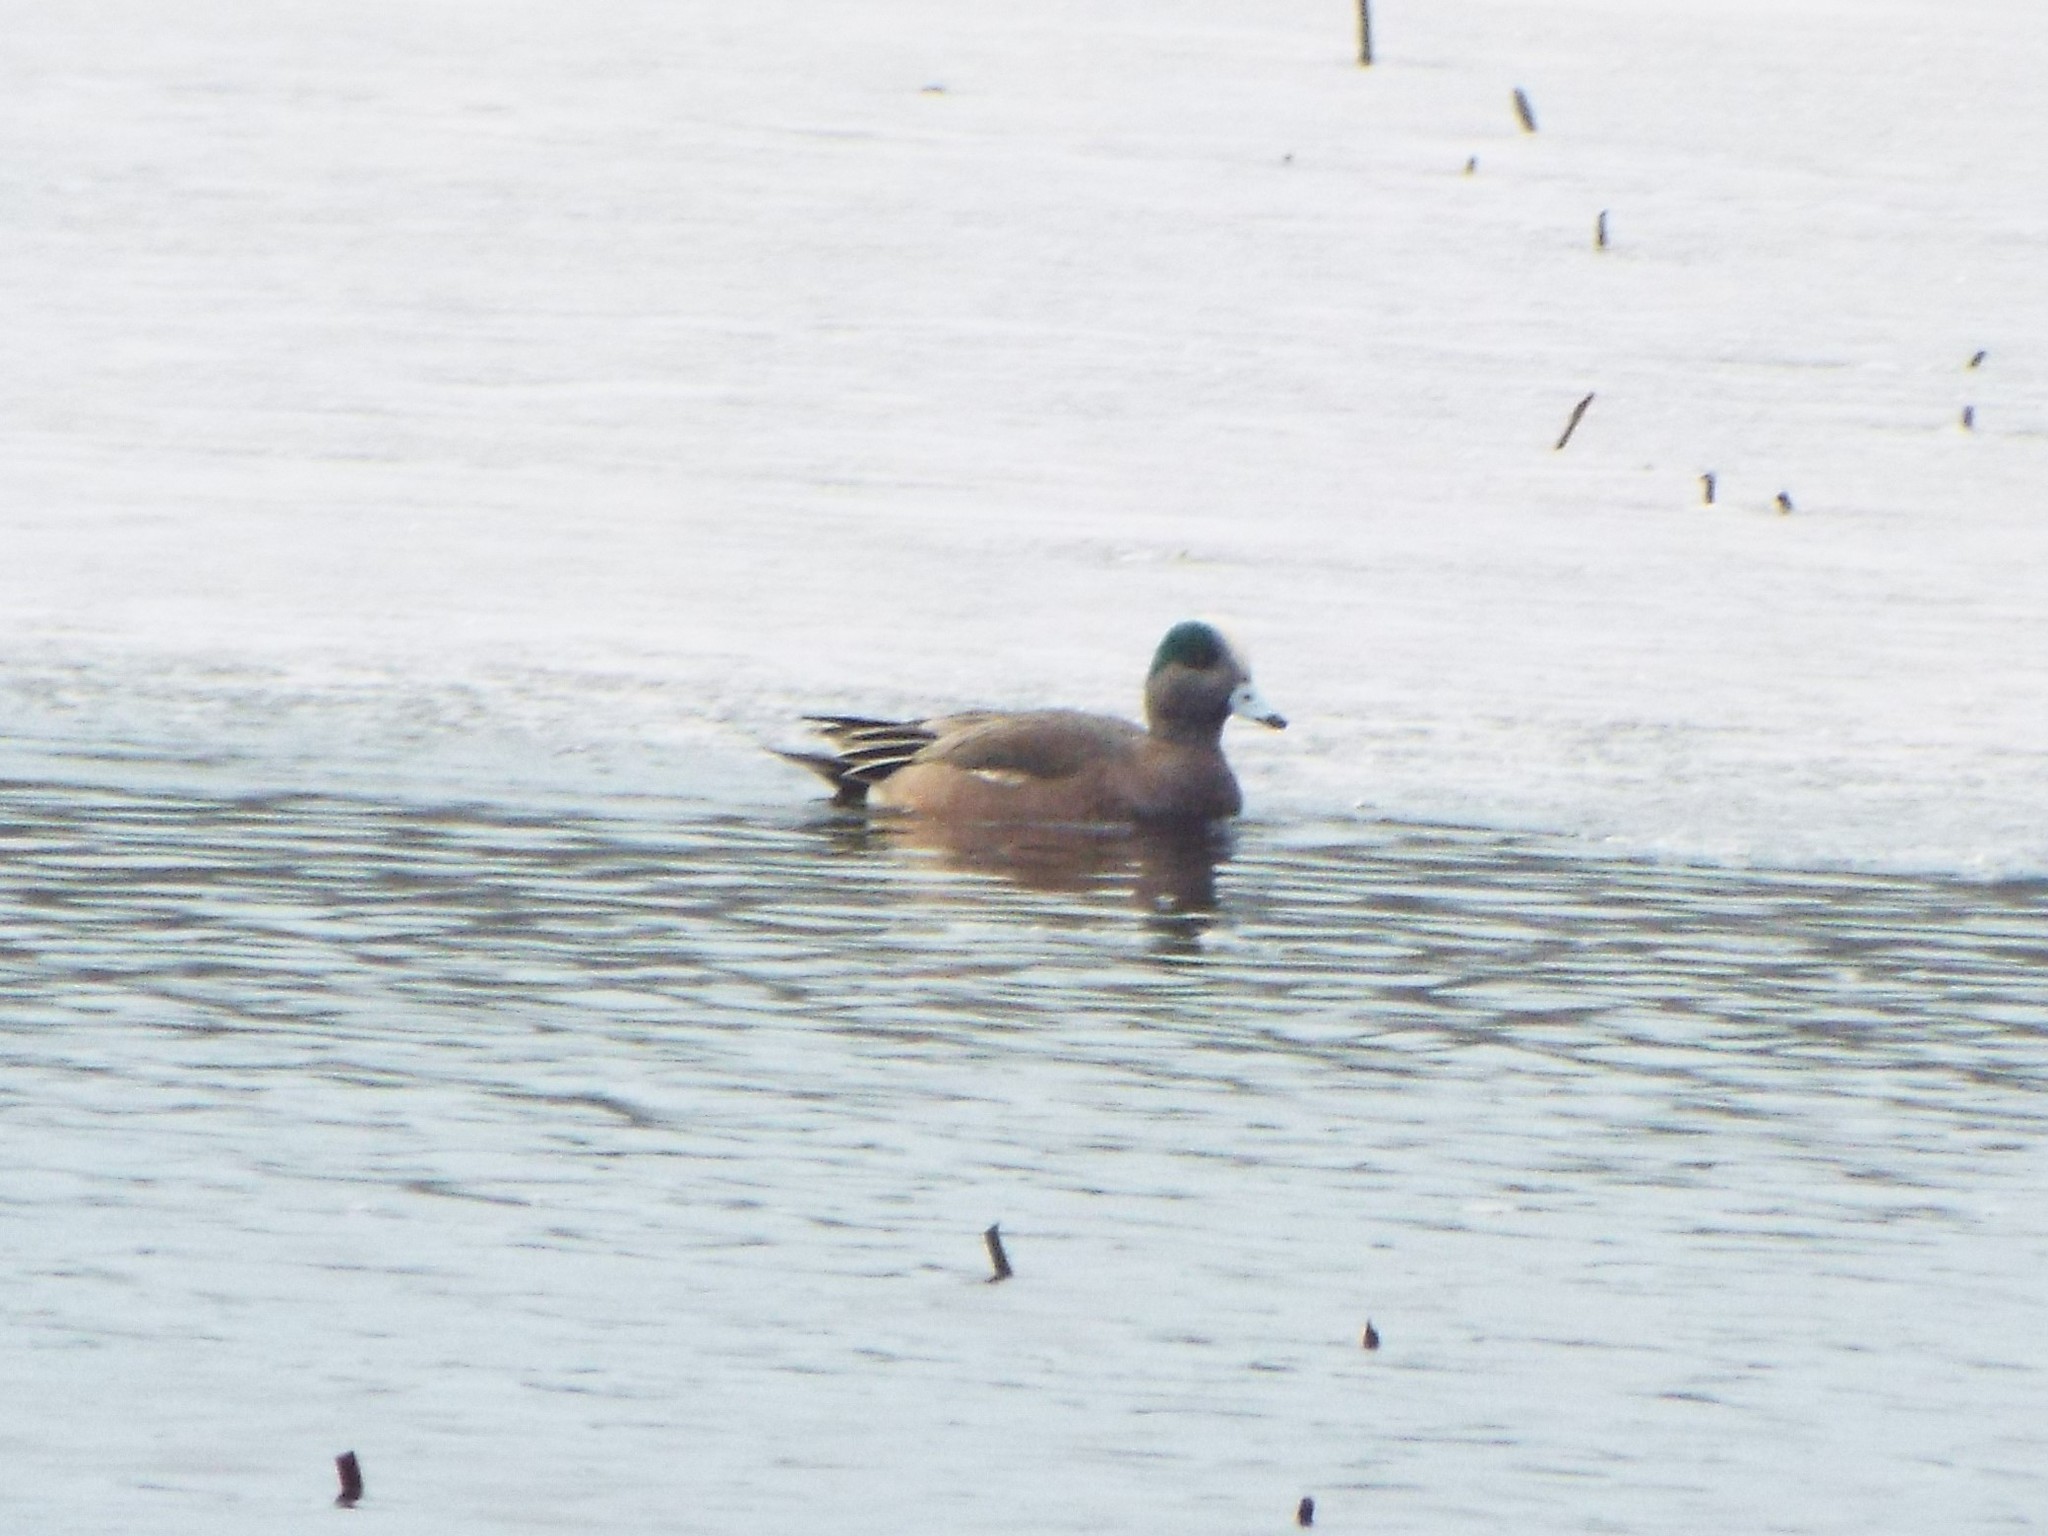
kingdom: Animalia
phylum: Chordata
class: Aves
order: Anseriformes
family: Anatidae
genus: Mareca
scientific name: Mareca americana
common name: American wigeon
